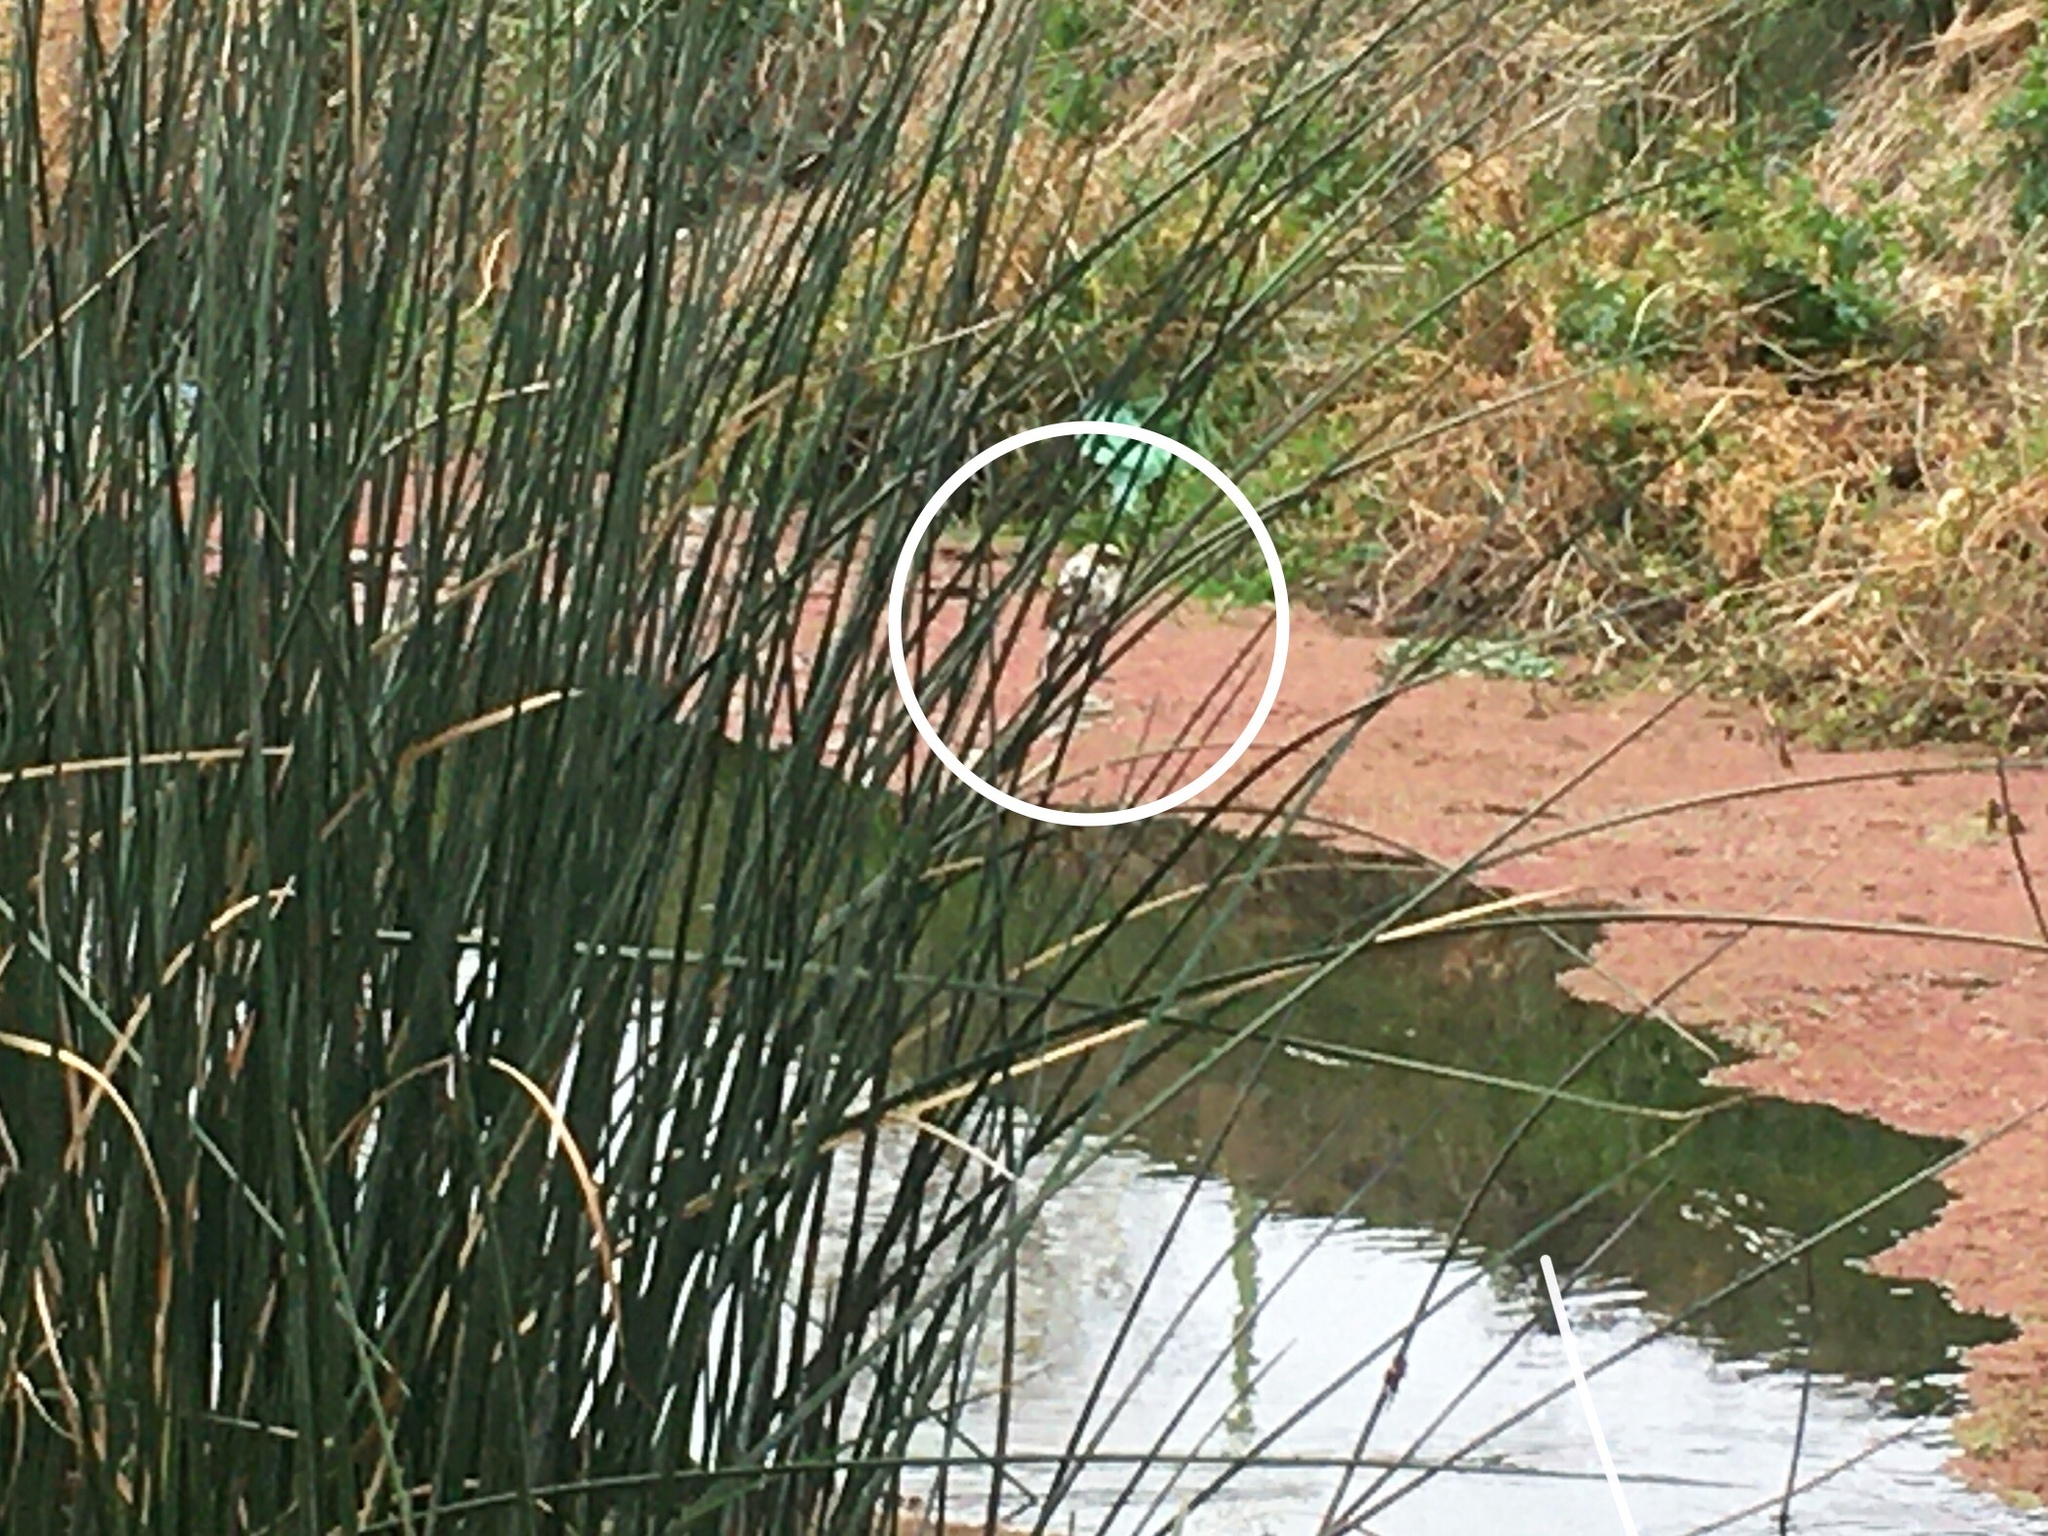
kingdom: Animalia
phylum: Chordata
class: Aves
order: Passeriformes
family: Icteridae
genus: Agelasticus
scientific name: Agelasticus thilius
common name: Yellow-winged blackbird
